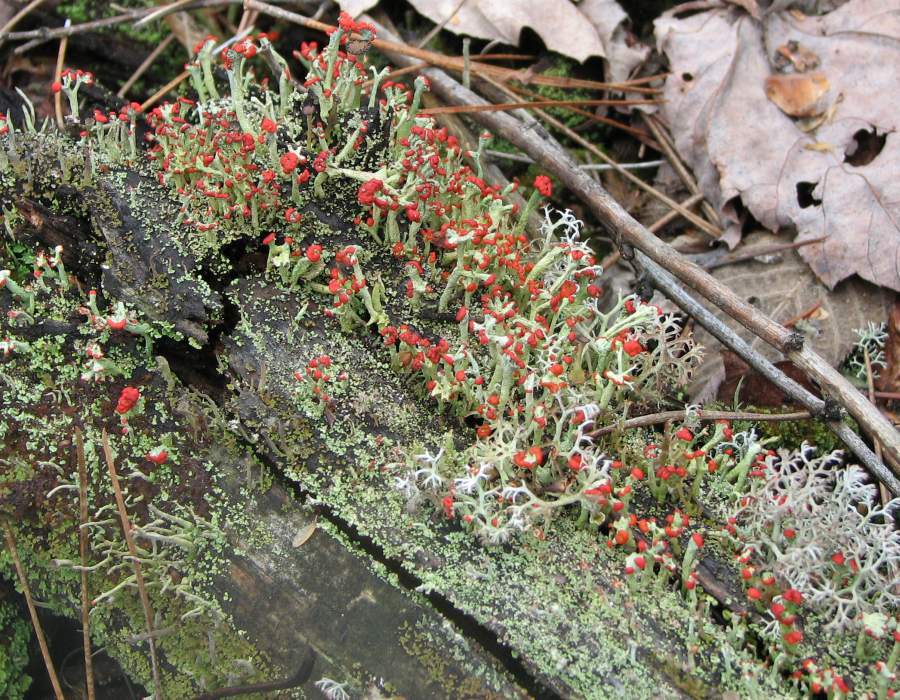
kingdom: Fungi
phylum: Ascomycota
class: Lecanoromycetes
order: Lecanorales
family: Cladoniaceae
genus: Cladonia
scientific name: Cladonia cristatella
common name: British soldier lichen
